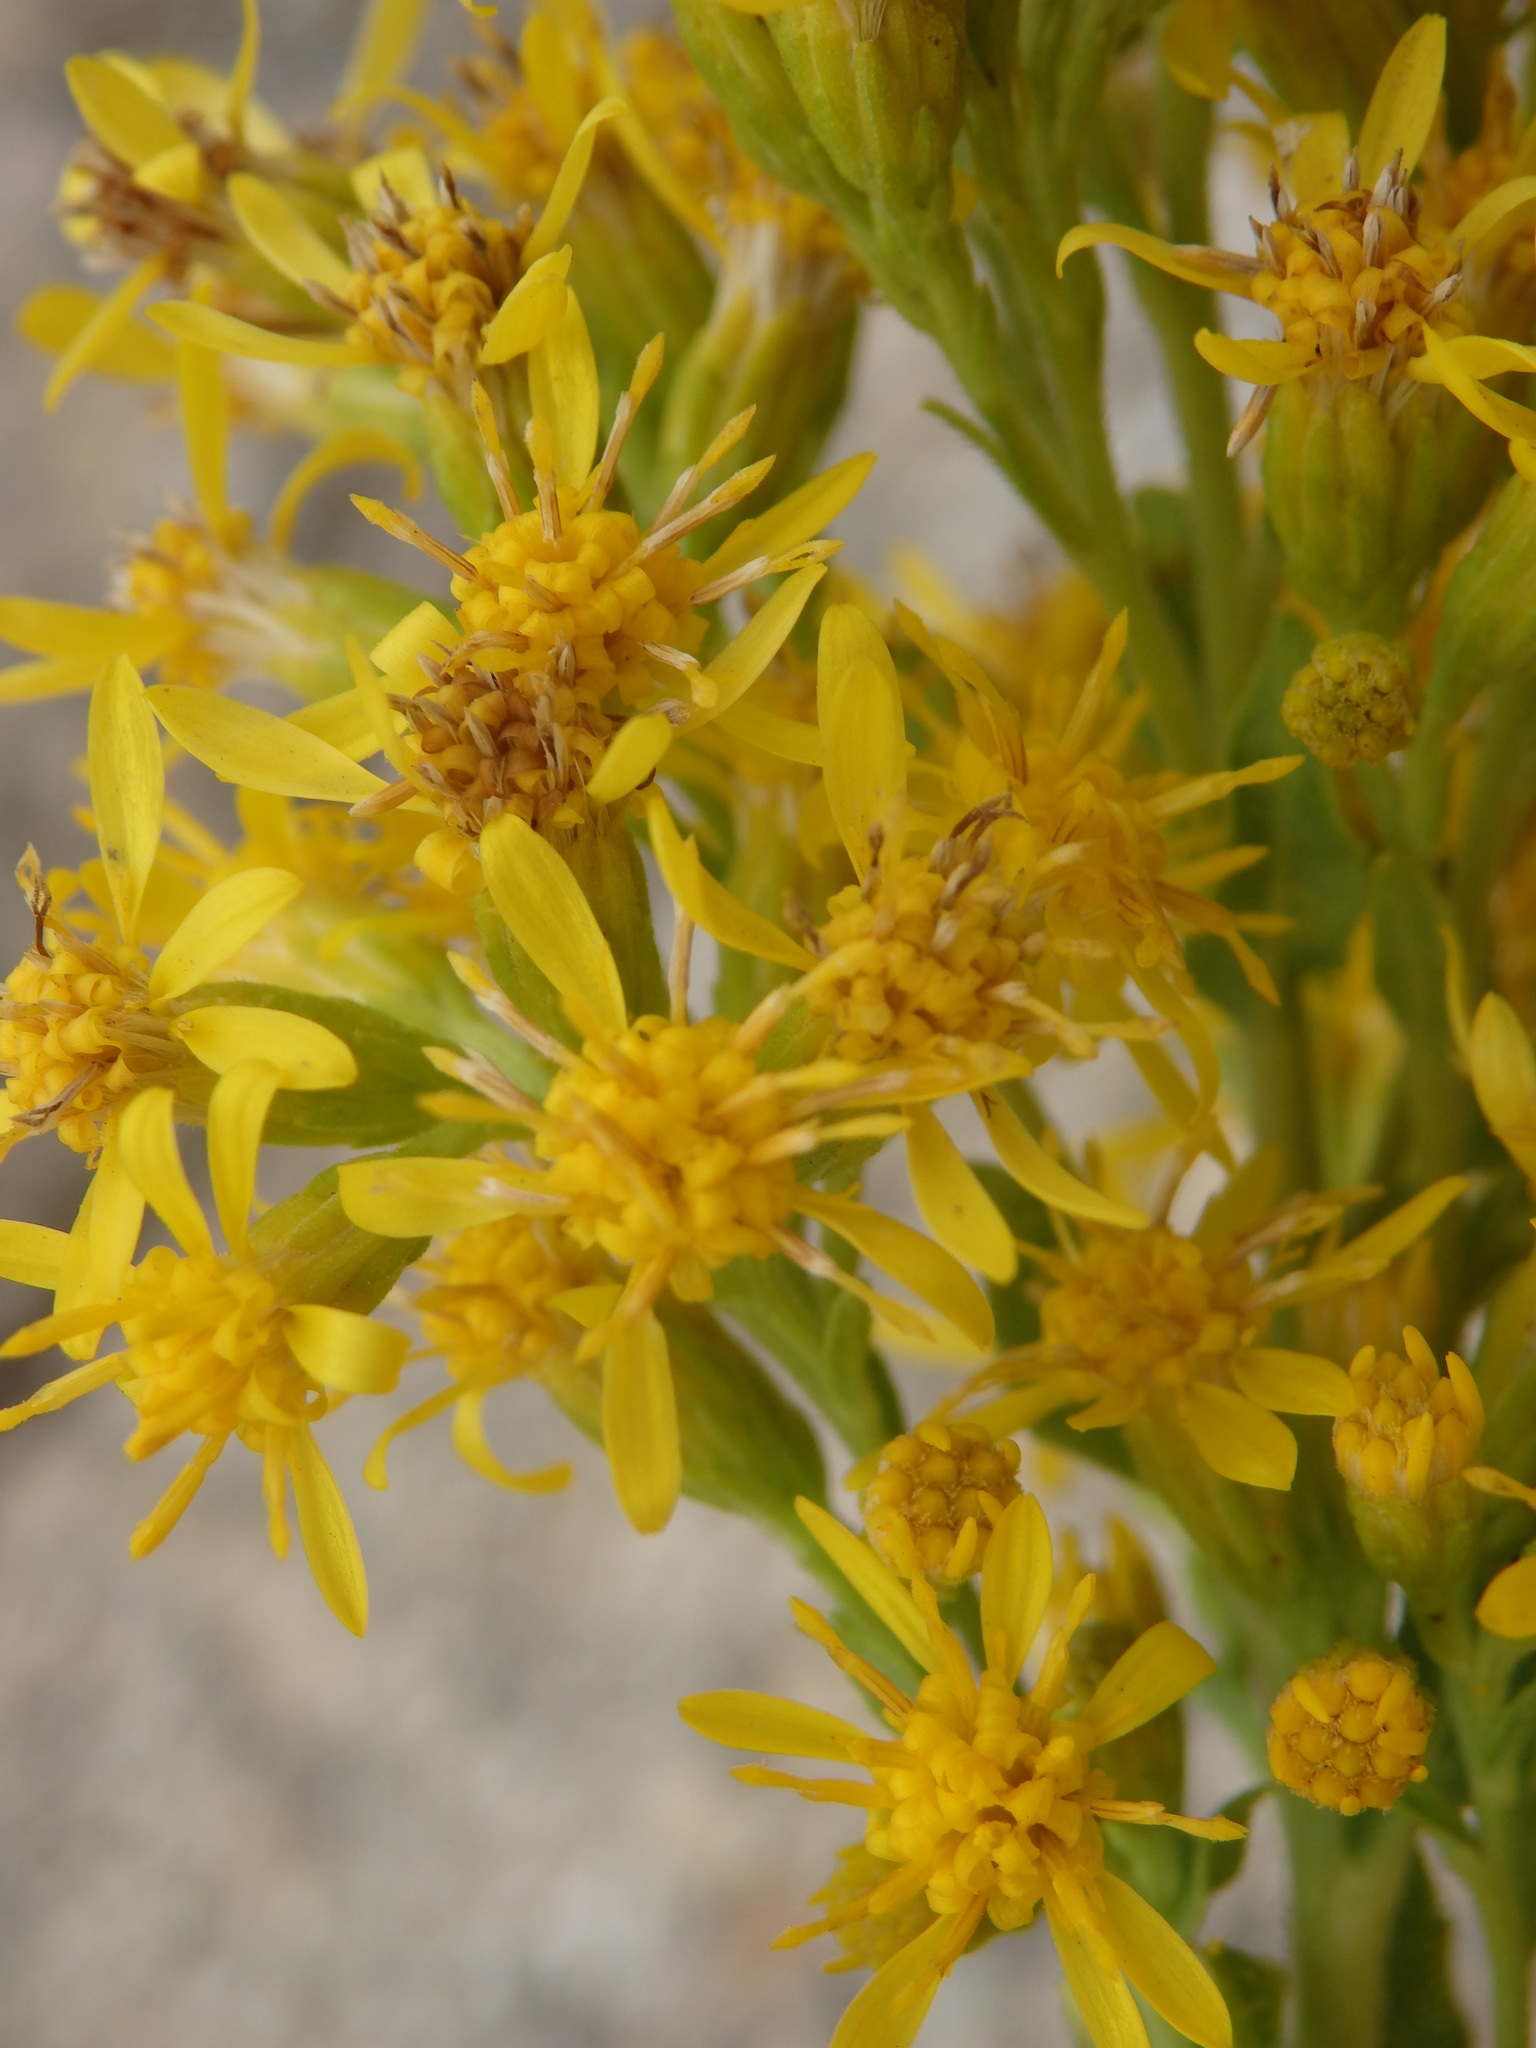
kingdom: Plantae
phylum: Tracheophyta
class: Magnoliopsida
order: Asterales
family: Asteraceae
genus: Solidago
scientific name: Solidago virgaurea
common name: Goldenrod
